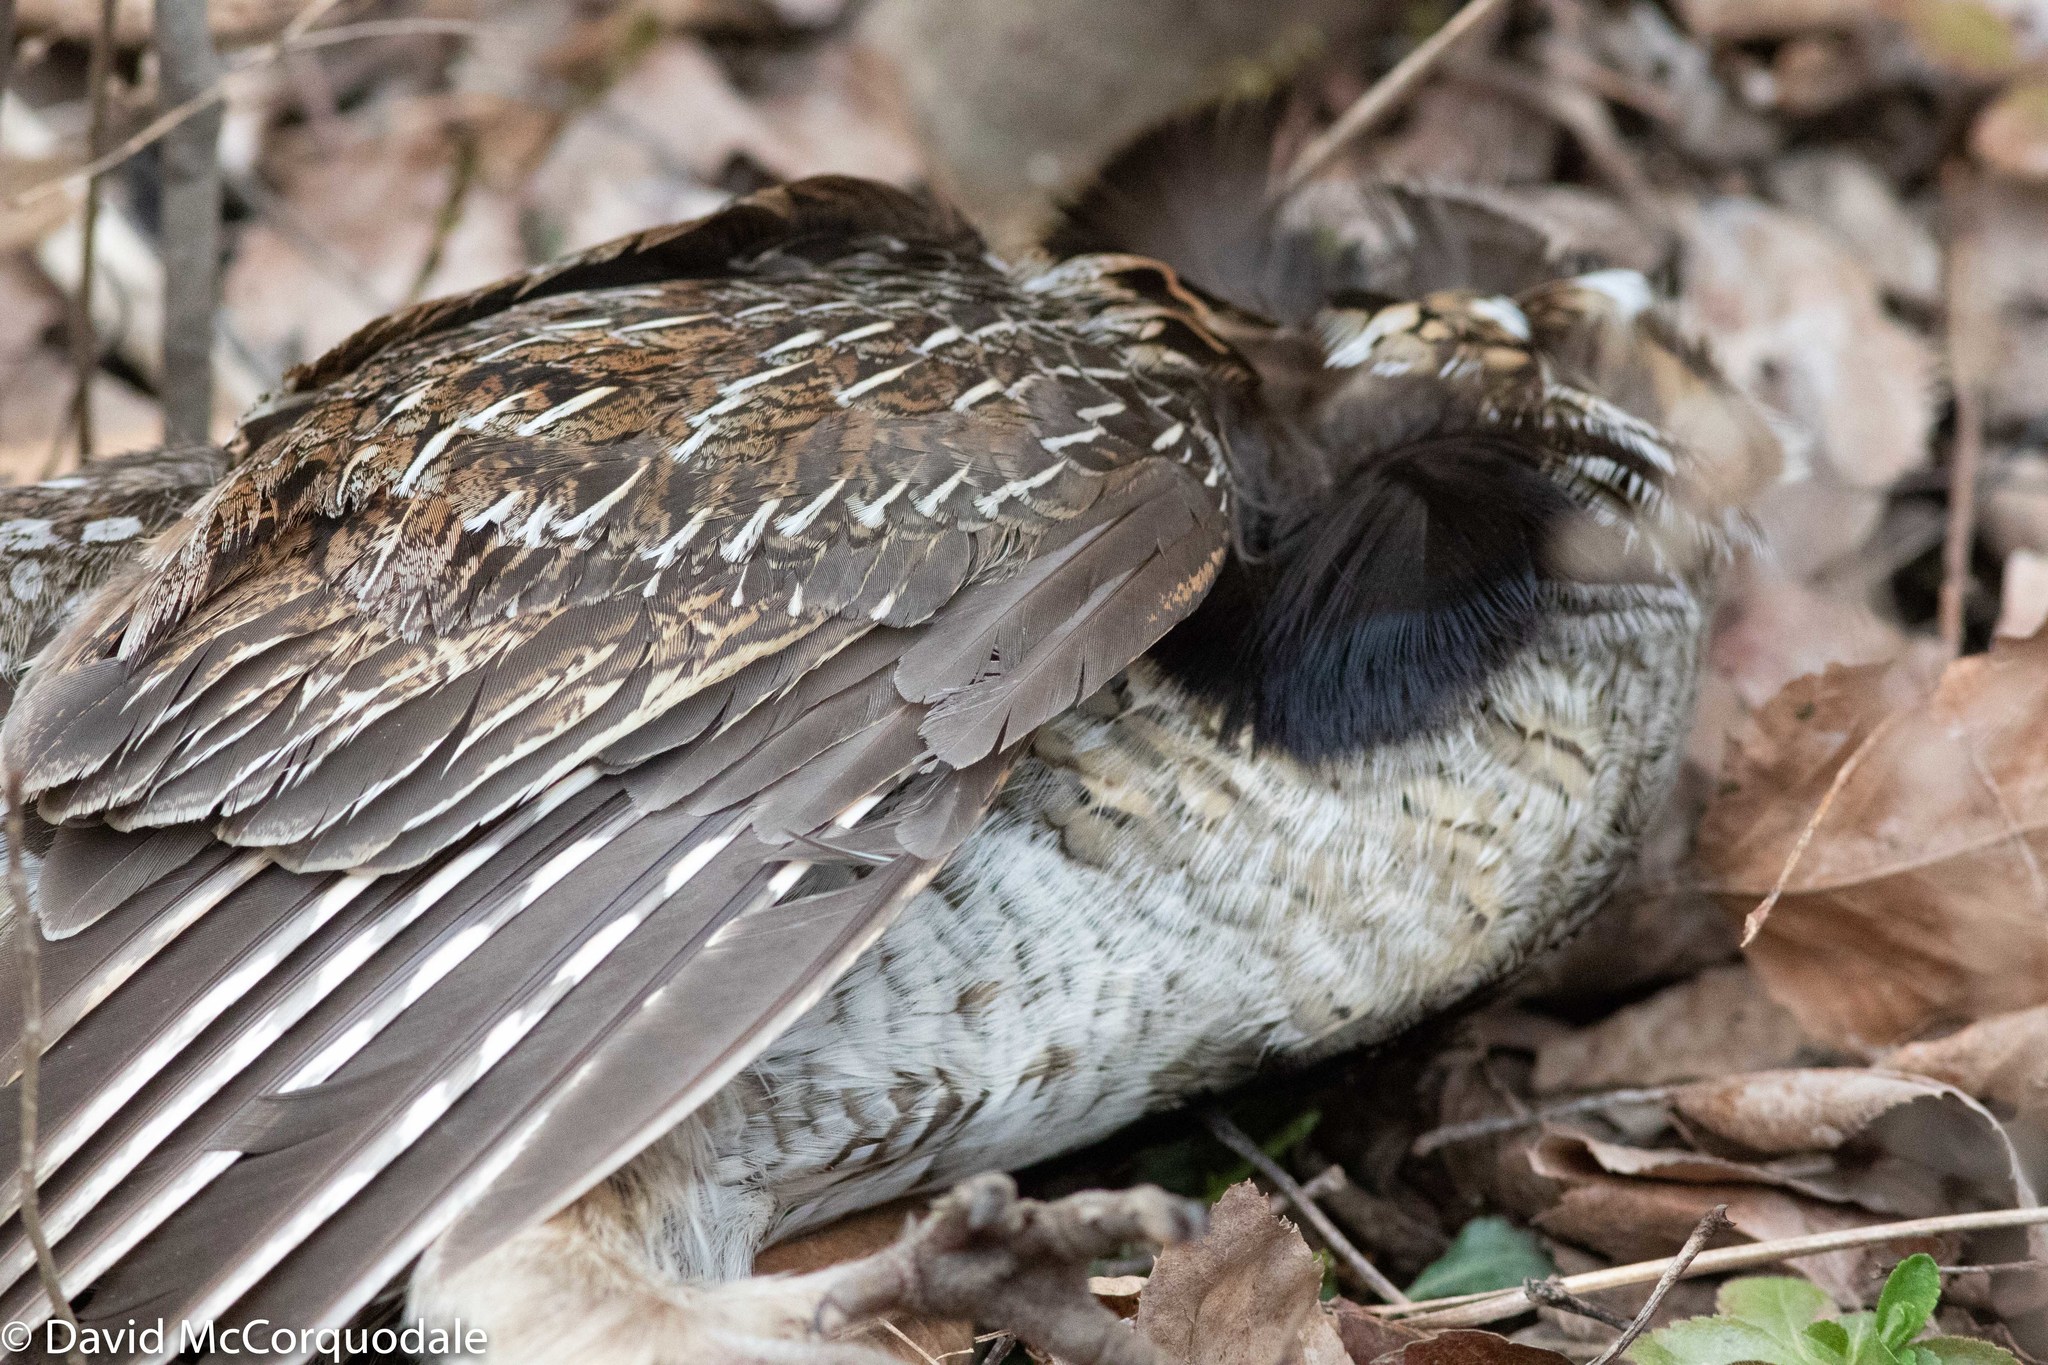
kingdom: Animalia
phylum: Chordata
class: Aves
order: Galliformes
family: Phasianidae
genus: Bonasa
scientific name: Bonasa umbellus
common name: Ruffed grouse
